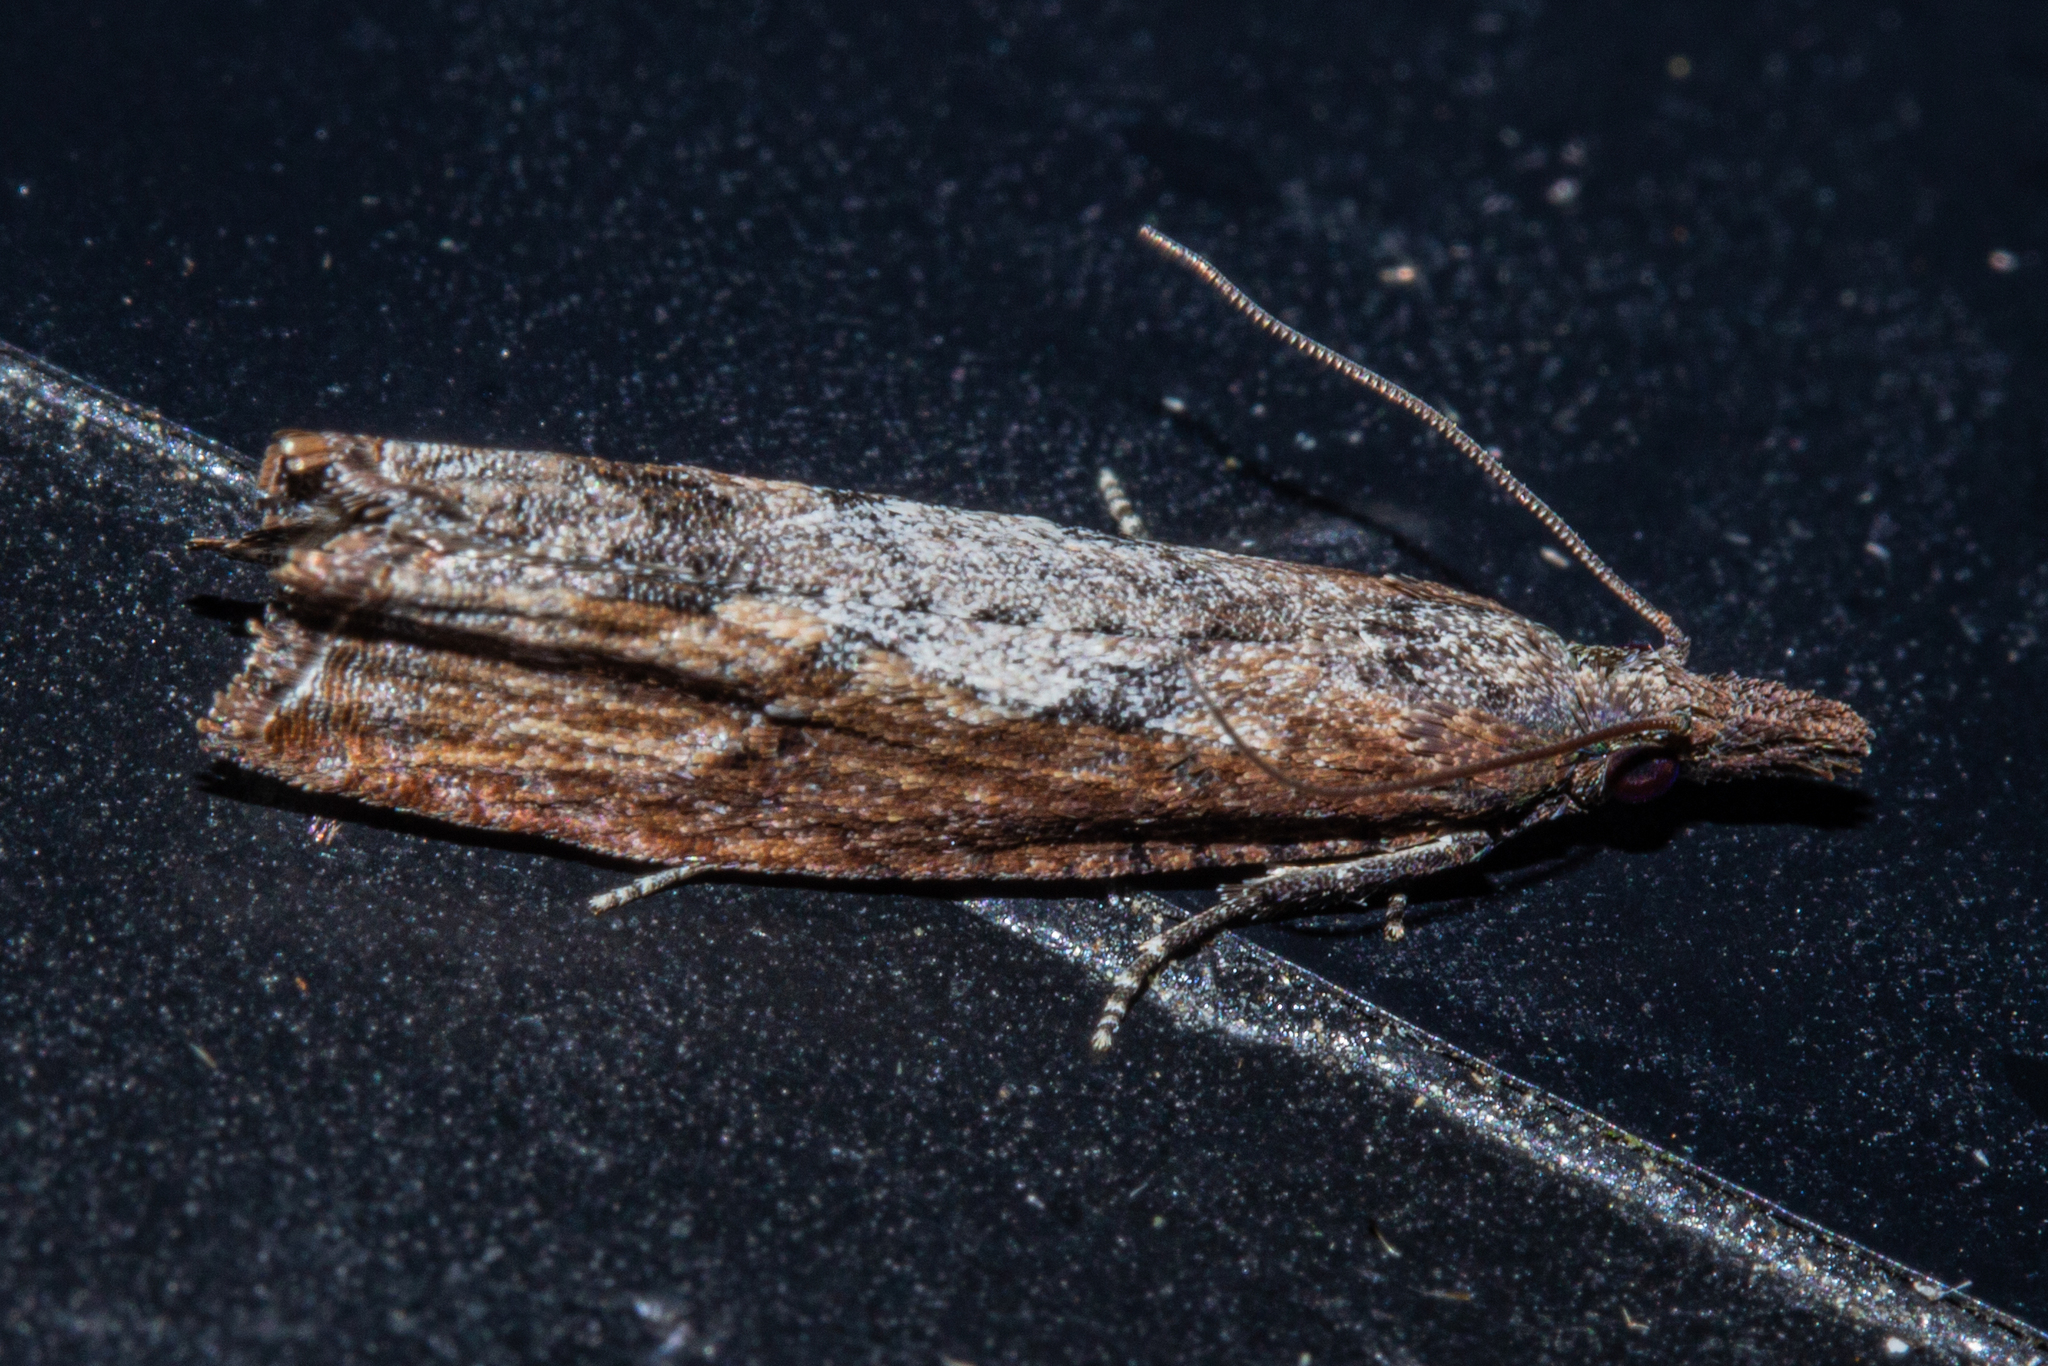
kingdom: Animalia
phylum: Arthropoda
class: Insecta
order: Lepidoptera
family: Tortricidae
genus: Strepsicrates
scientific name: Strepsicrates infensa
